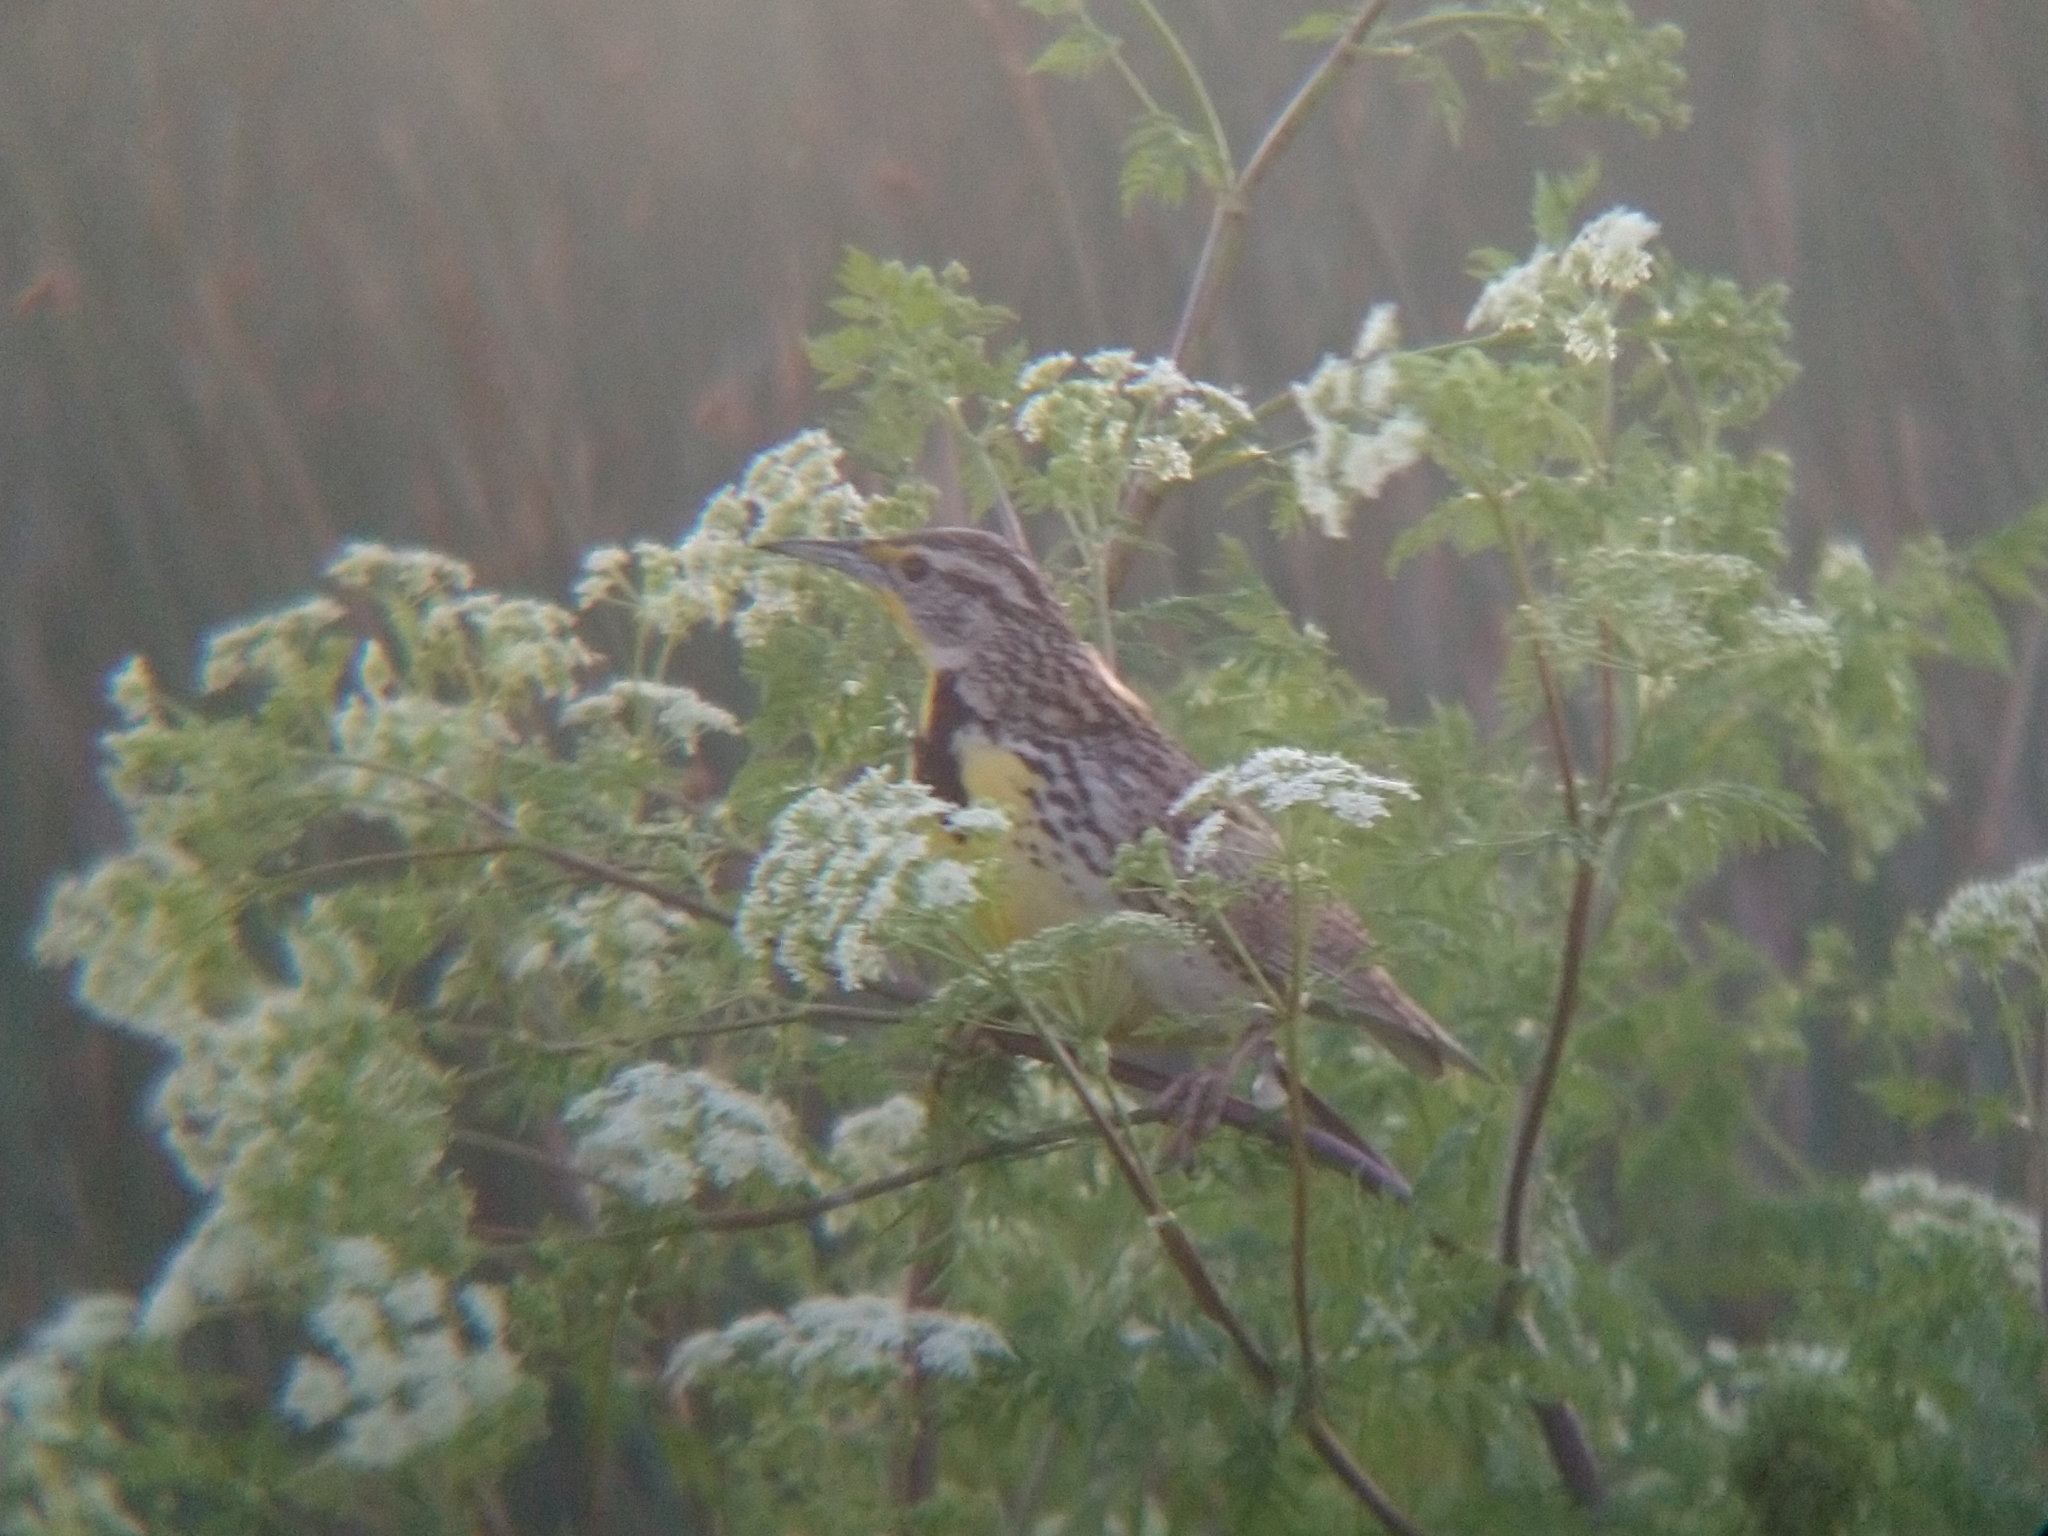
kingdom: Animalia
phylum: Chordata
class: Aves
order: Passeriformes
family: Icteridae
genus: Sturnella
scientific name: Sturnella neglecta
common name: Western meadowlark
